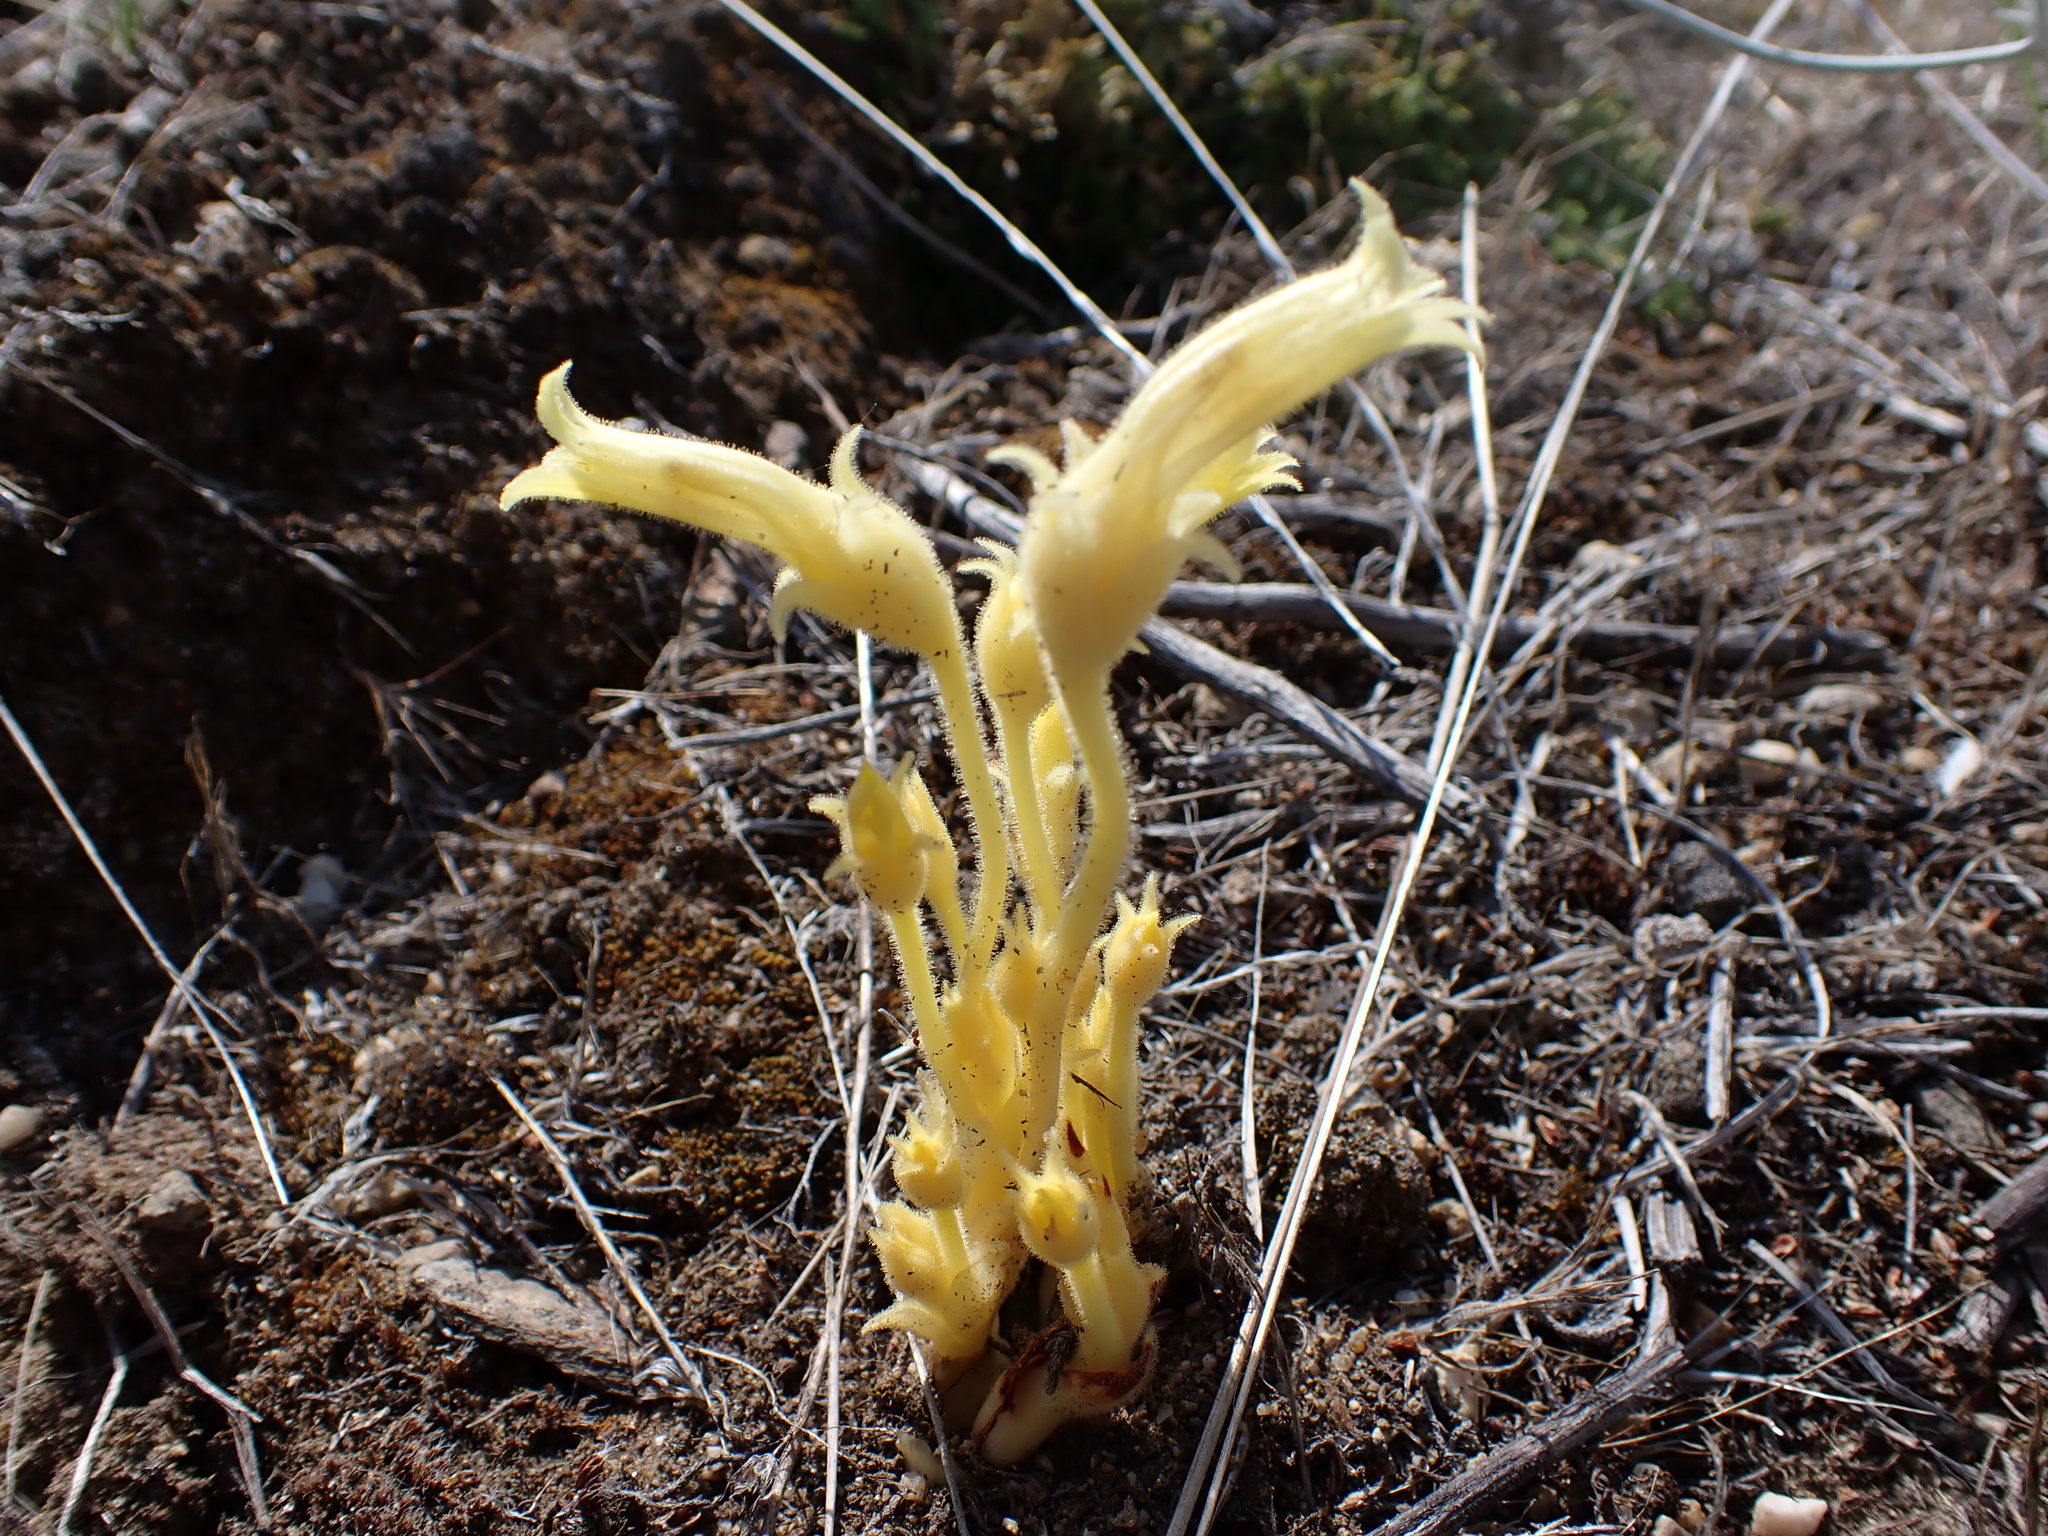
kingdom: Plantae
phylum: Tracheophyta
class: Magnoliopsida
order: Lamiales
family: Orobanchaceae
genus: Aphyllon
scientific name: Aphyllon franciscanum
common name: San francisco broomrape
